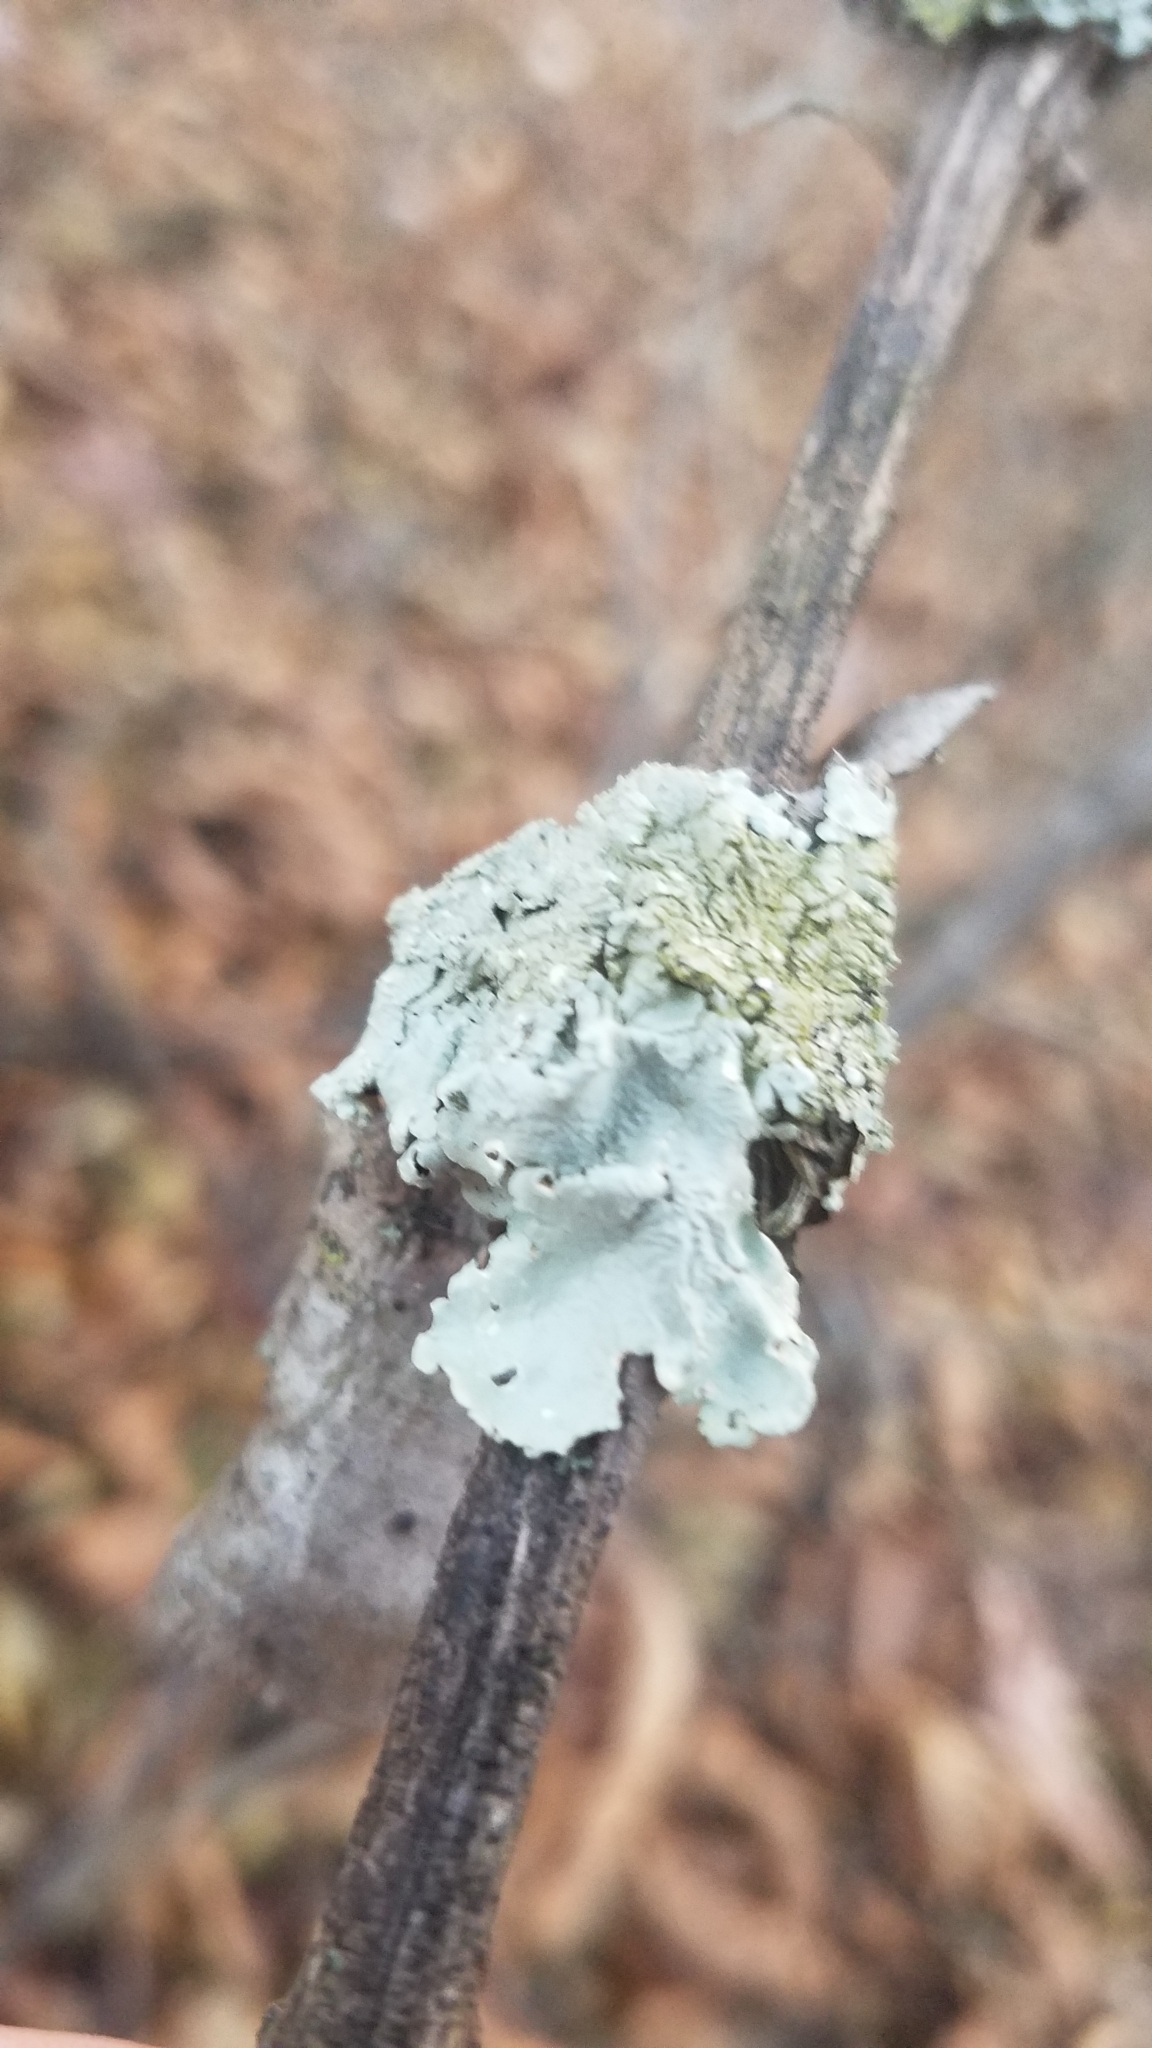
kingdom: Fungi
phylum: Ascomycota
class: Lecanoromycetes
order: Lecanorales
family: Parmeliaceae
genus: Flavoparmelia
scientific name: Flavoparmelia caperata
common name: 40-mile per hour lichen
